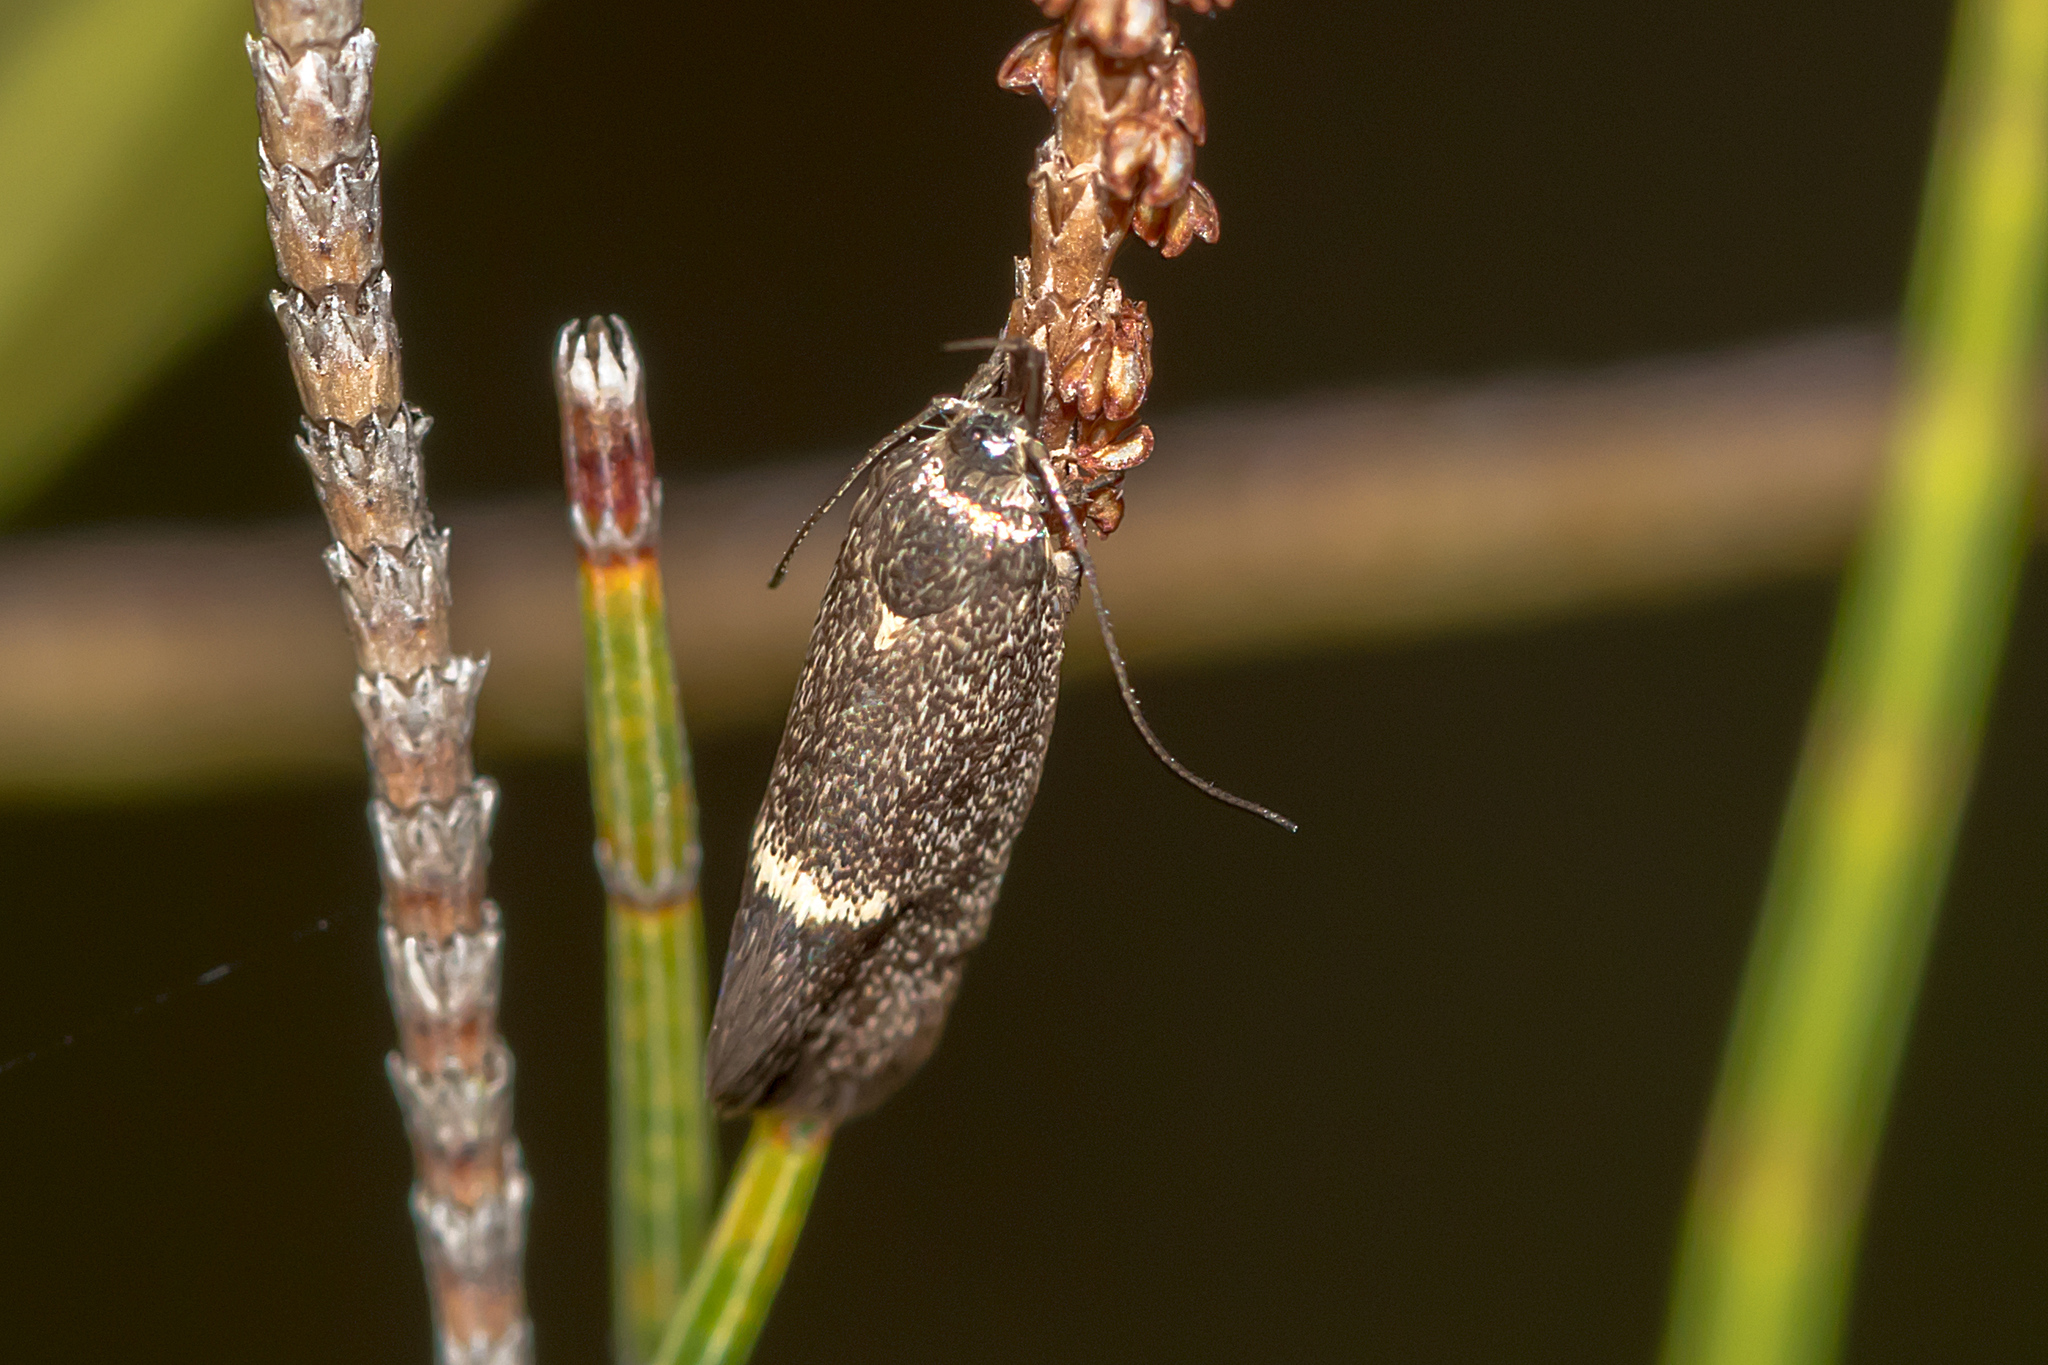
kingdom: Animalia
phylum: Arthropoda
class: Insecta
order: Lepidoptera
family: Oecophoridae
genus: Leistomorpha
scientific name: Leistomorpha brontoscopa
